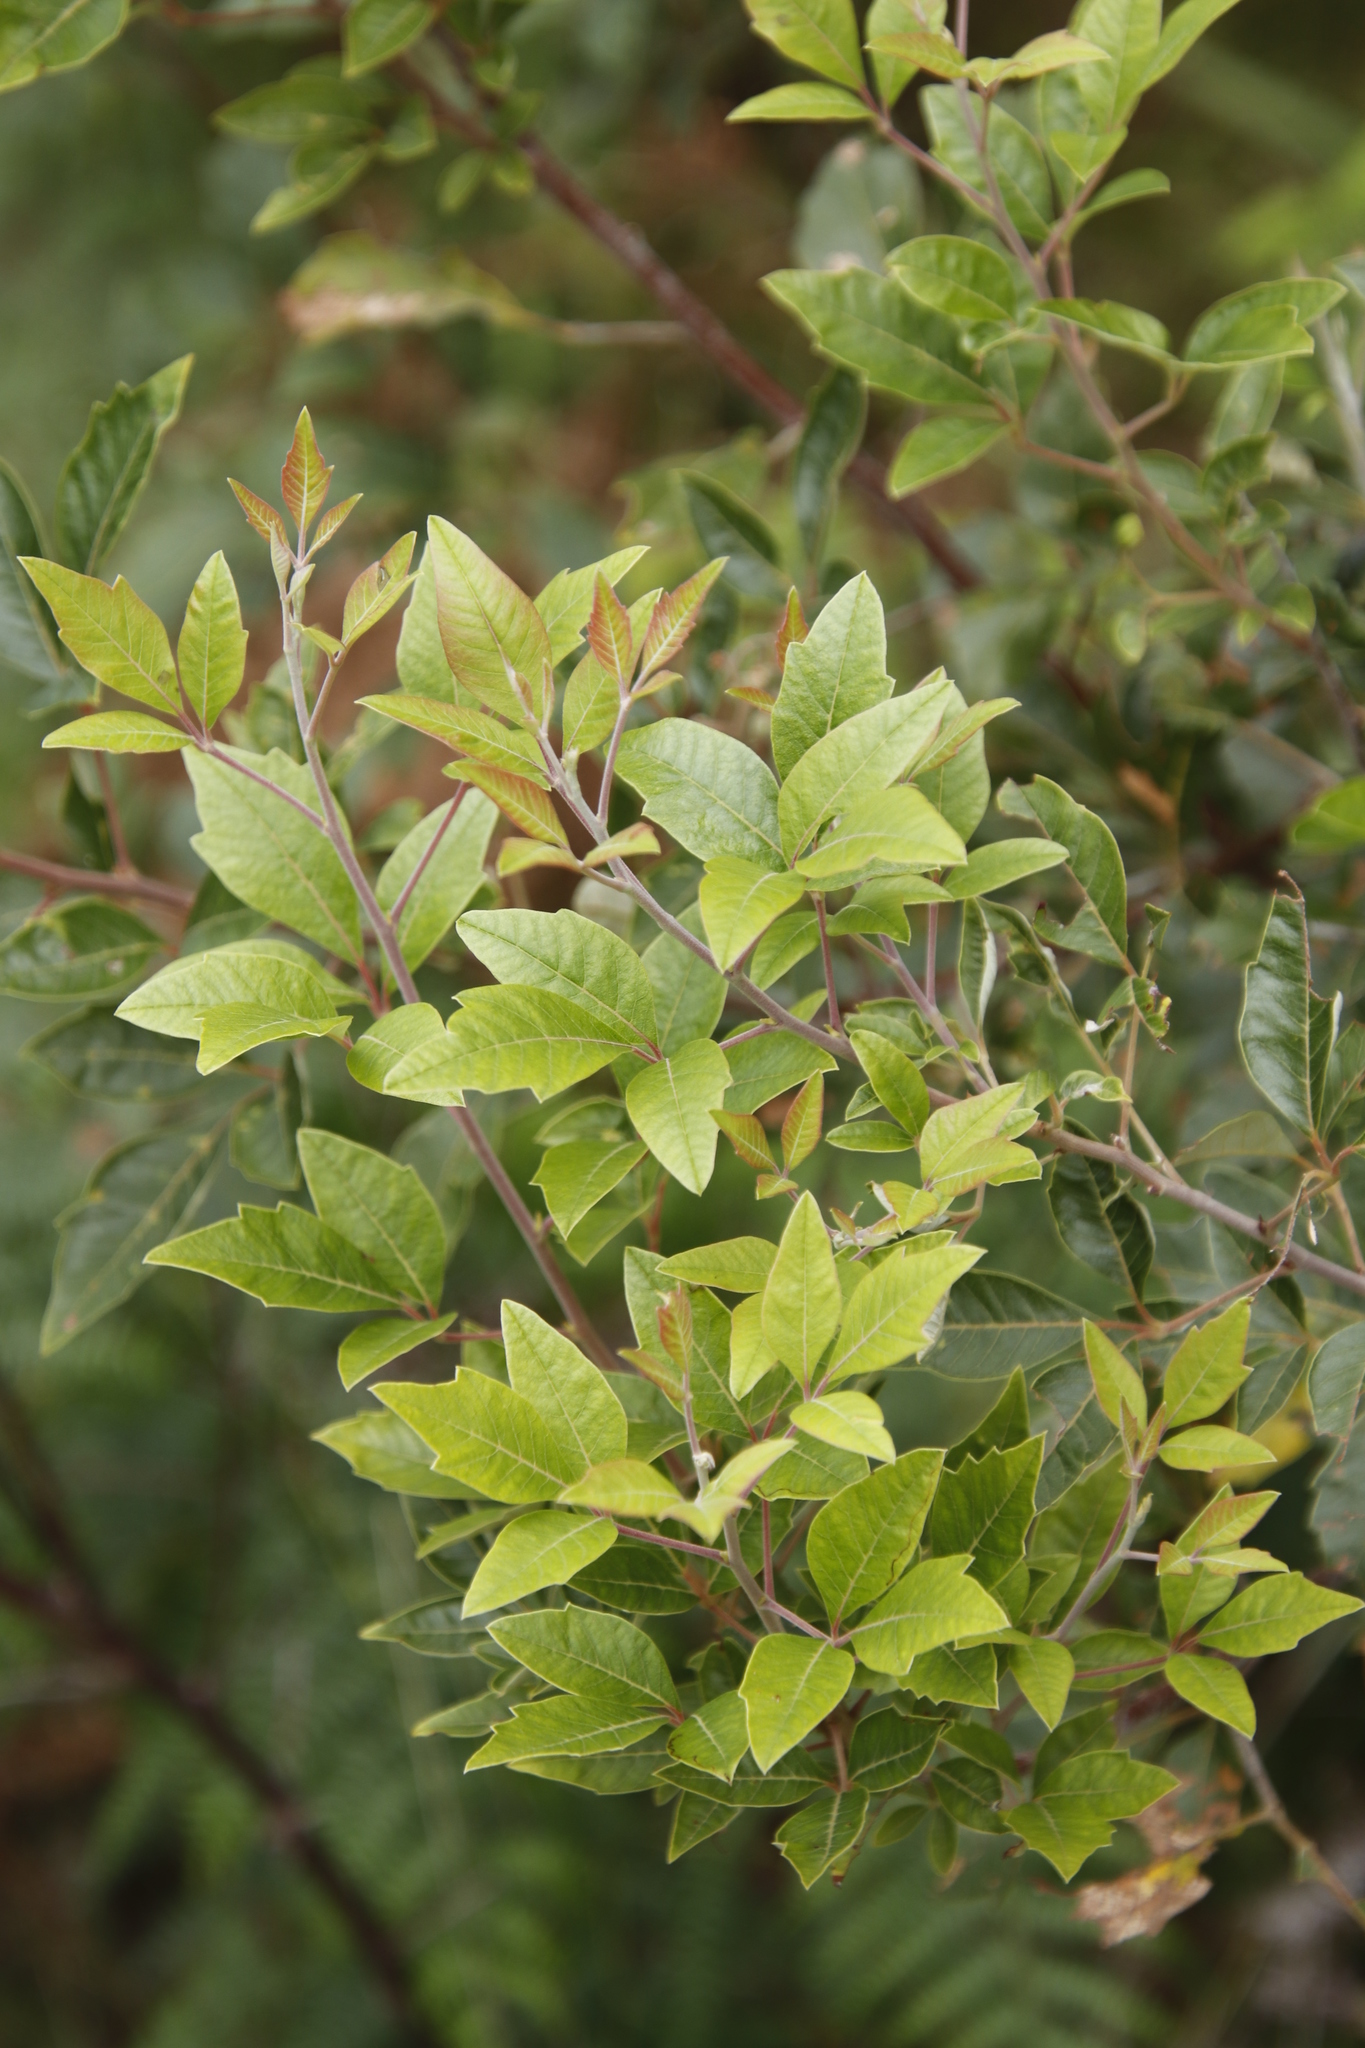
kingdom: Plantae
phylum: Tracheophyta
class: Magnoliopsida
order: Sapindales
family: Anacardiaceae
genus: Searsia
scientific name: Searsia tomentosa
